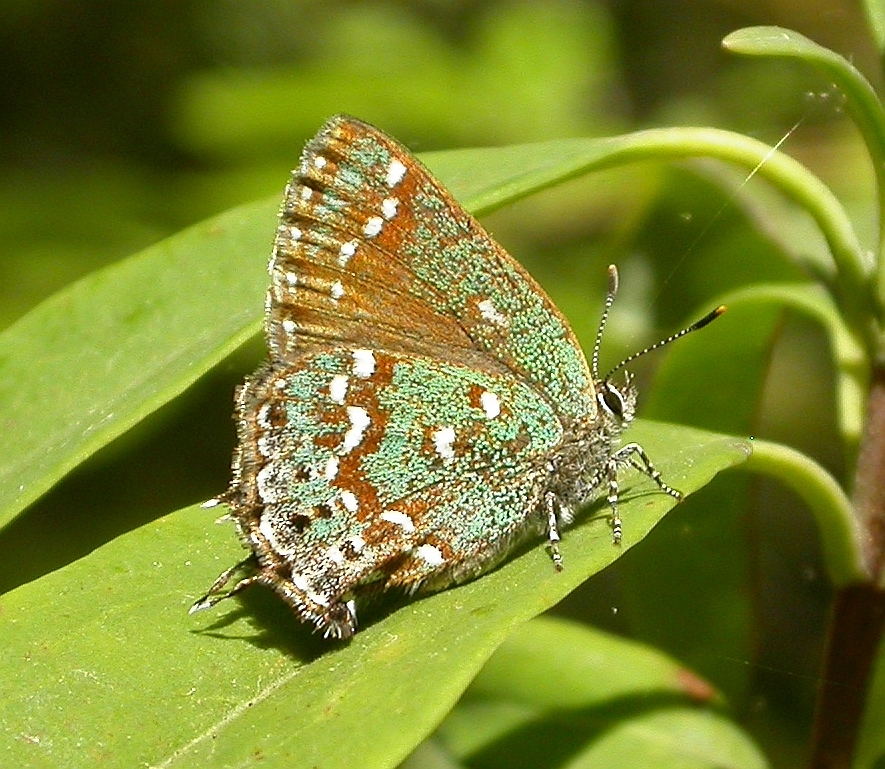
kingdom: Animalia
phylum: Arthropoda
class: Insecta
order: Lepidoptera
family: Lycaenidae
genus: Mitoura
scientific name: Mitoura hesseli
